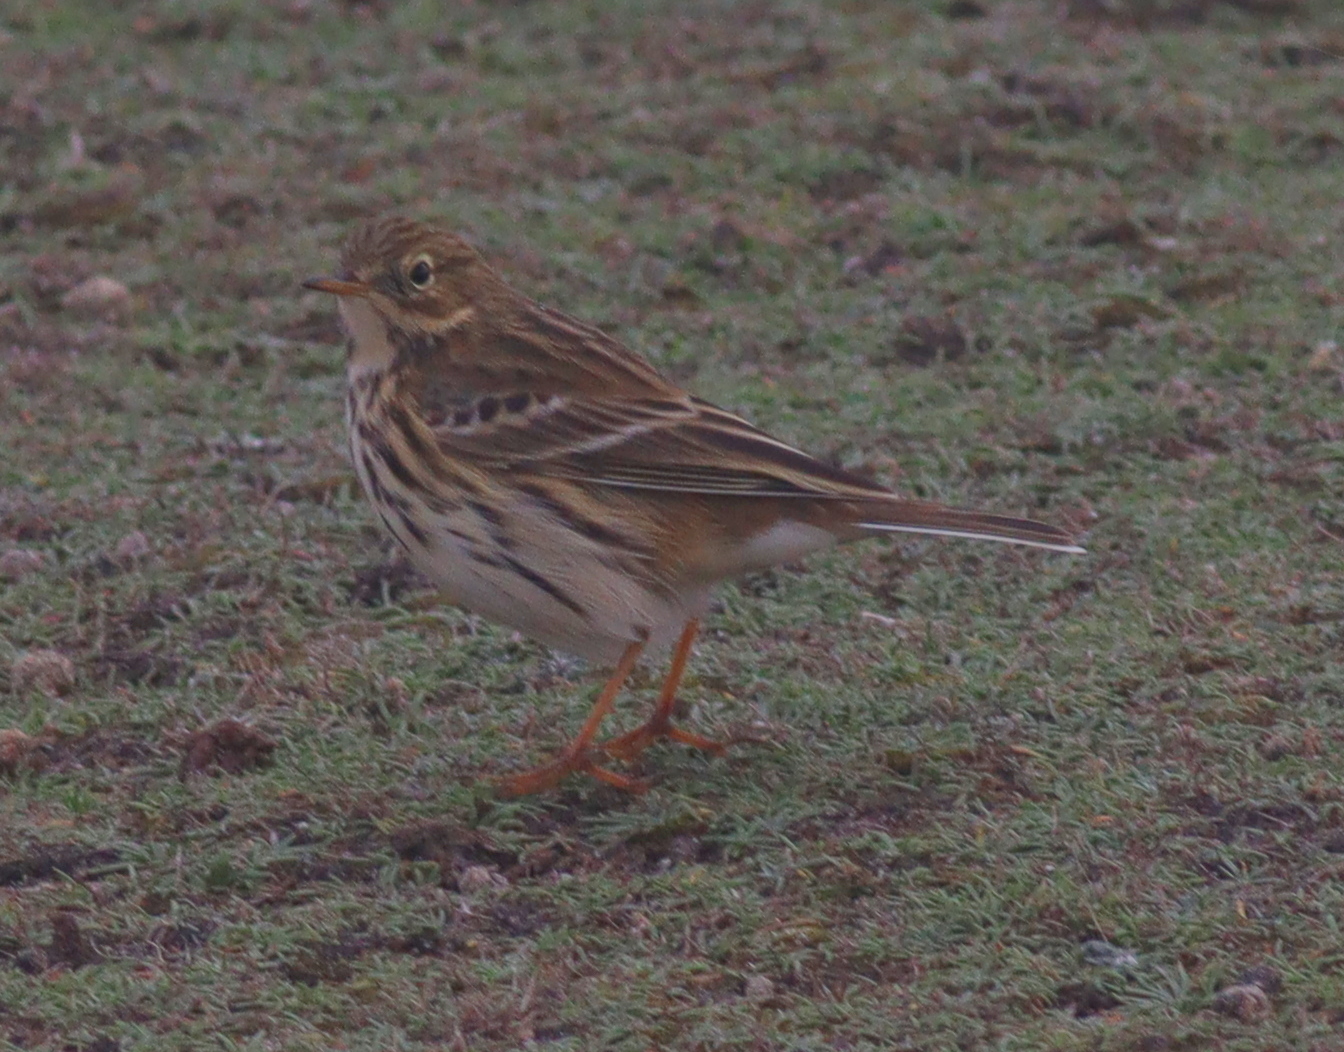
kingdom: Animalia
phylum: Chordata
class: Aves
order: Passeriformes
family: Motacillidae
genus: Anthus
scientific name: Anthus pratensis
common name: Meadow pipit
